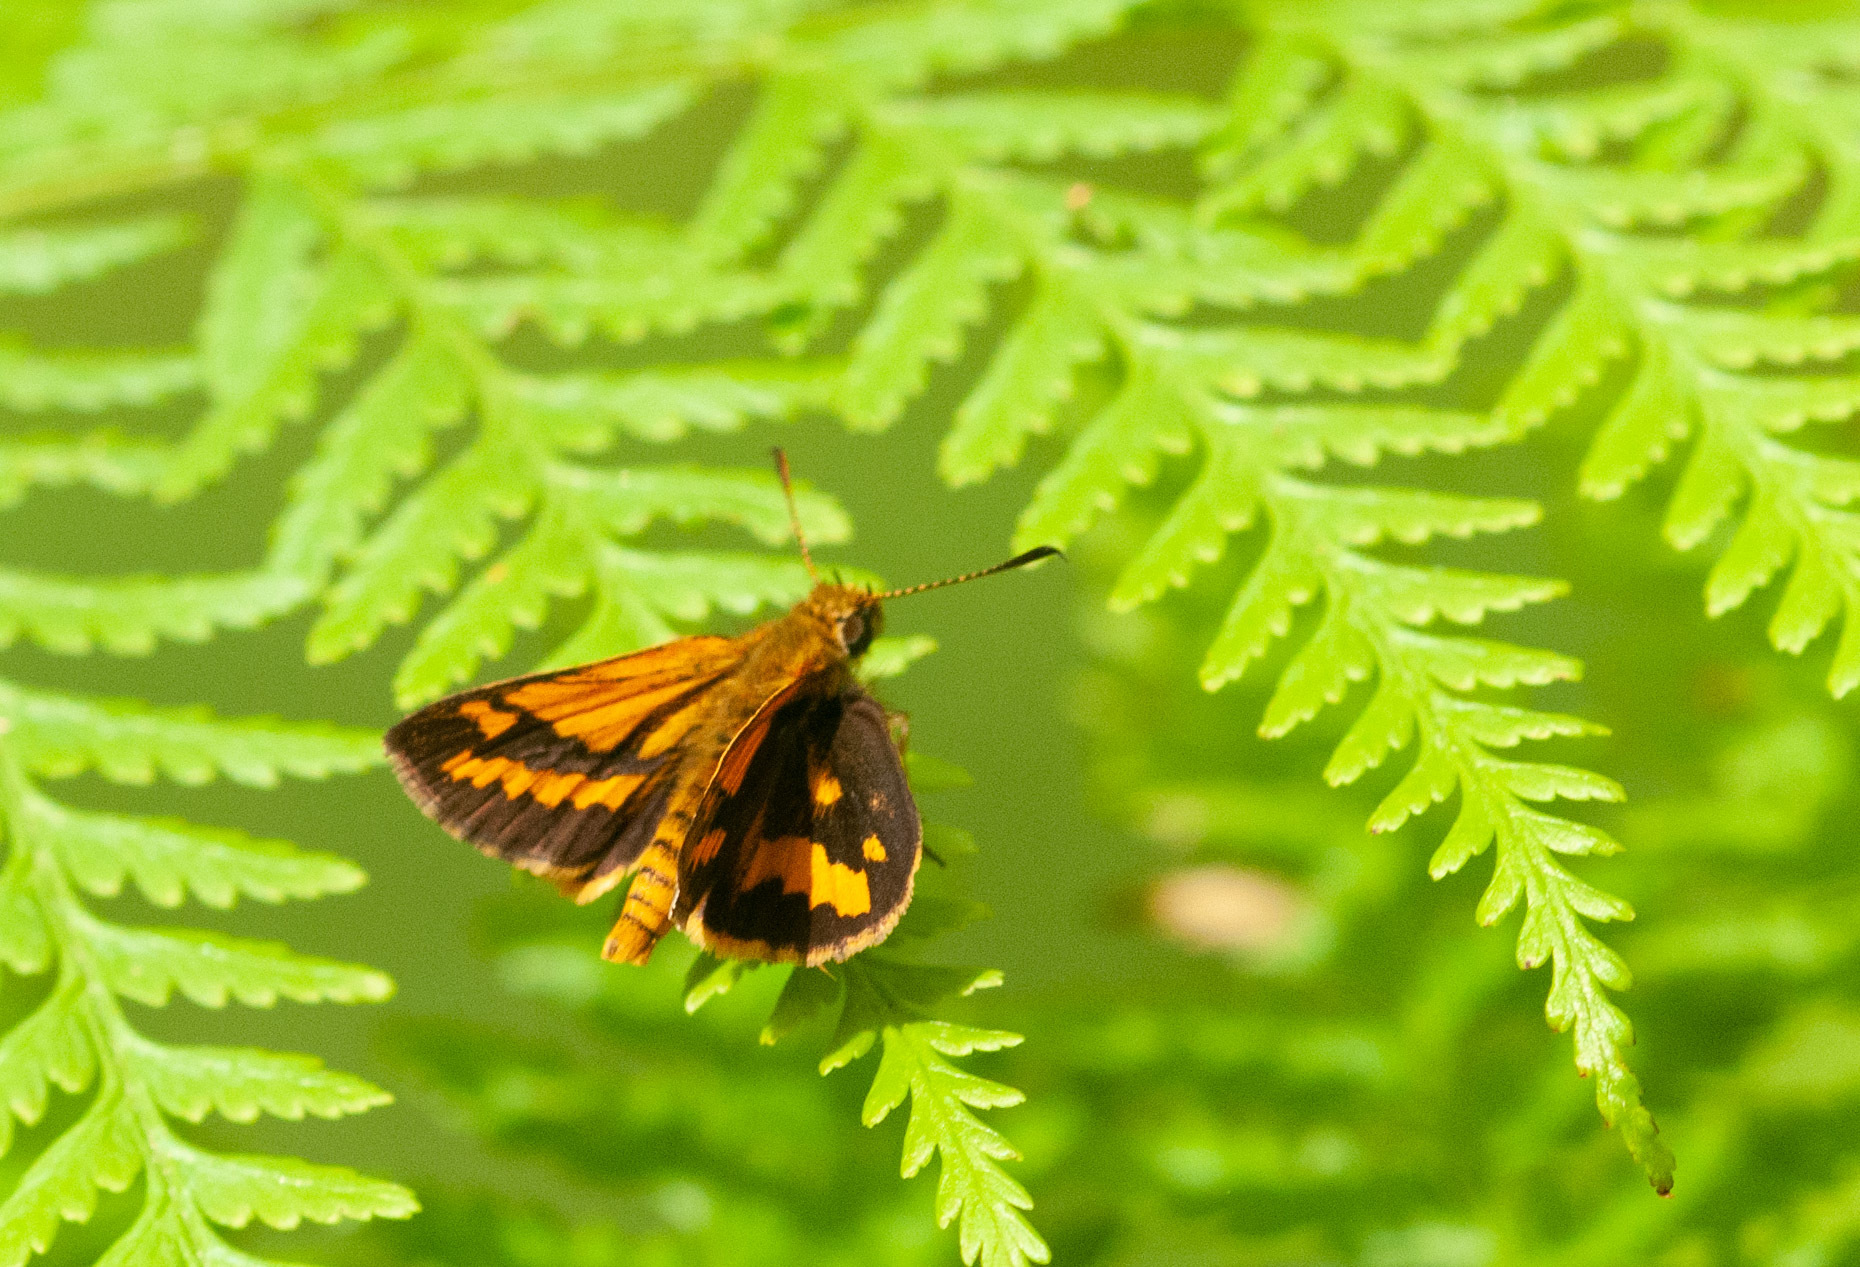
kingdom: Animalia
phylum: Arthropoda
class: Insecta
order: Lepidoptera
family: Hesperiidae
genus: Suniana
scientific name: Suniana sunias
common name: Wide-brand grass-dart
